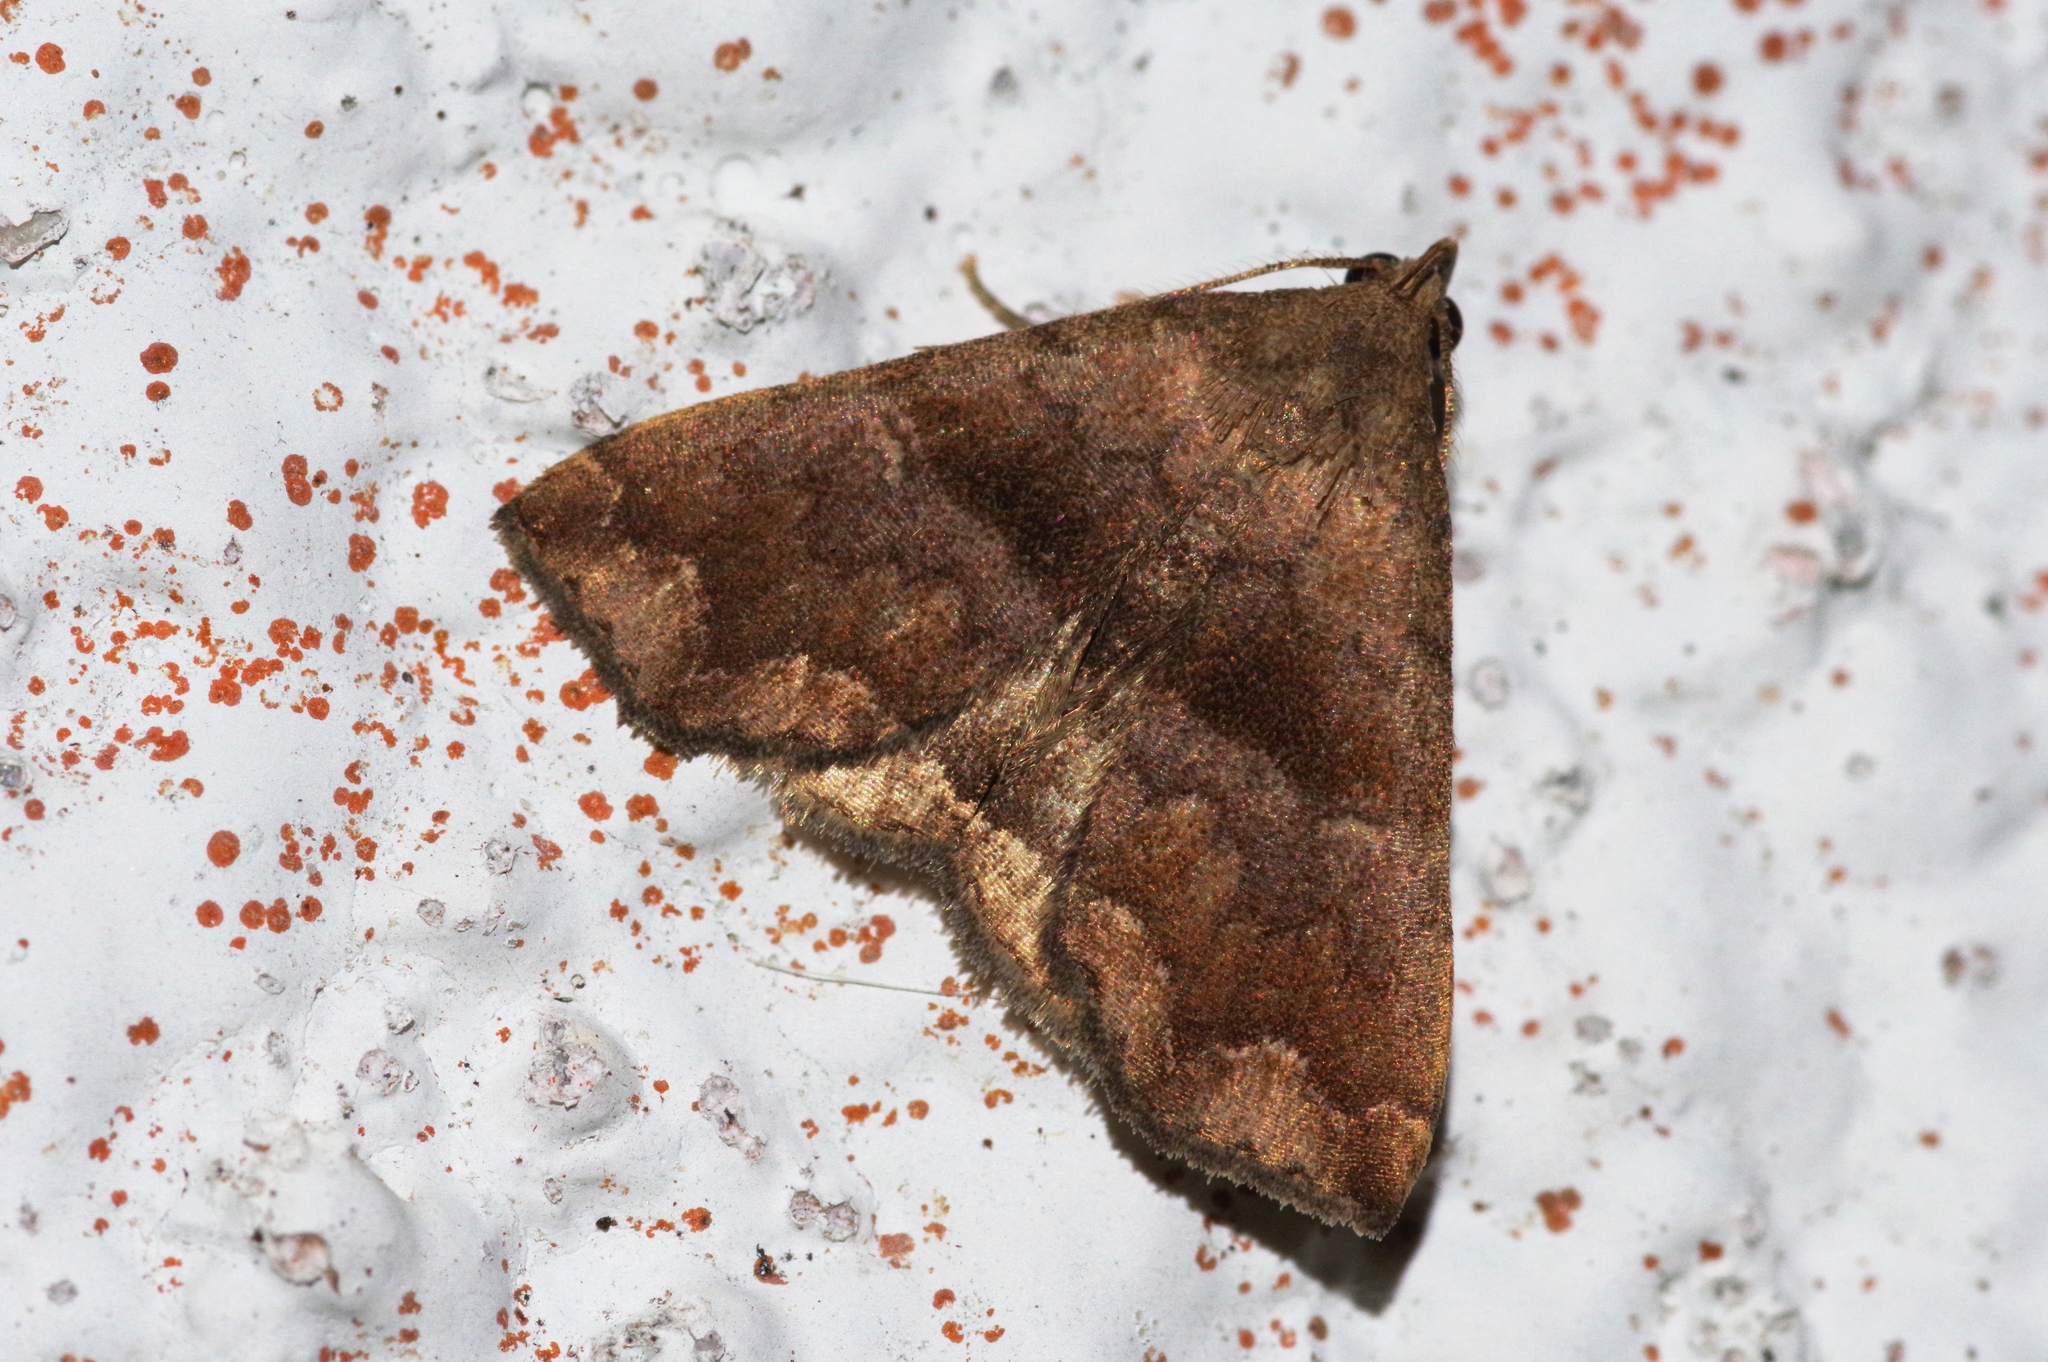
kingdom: Animalia
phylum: Arthropoda
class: Insecta
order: Lepidoptera
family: Erebidae
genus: Polypogon
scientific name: Polypogon Hipoepa fractalis
